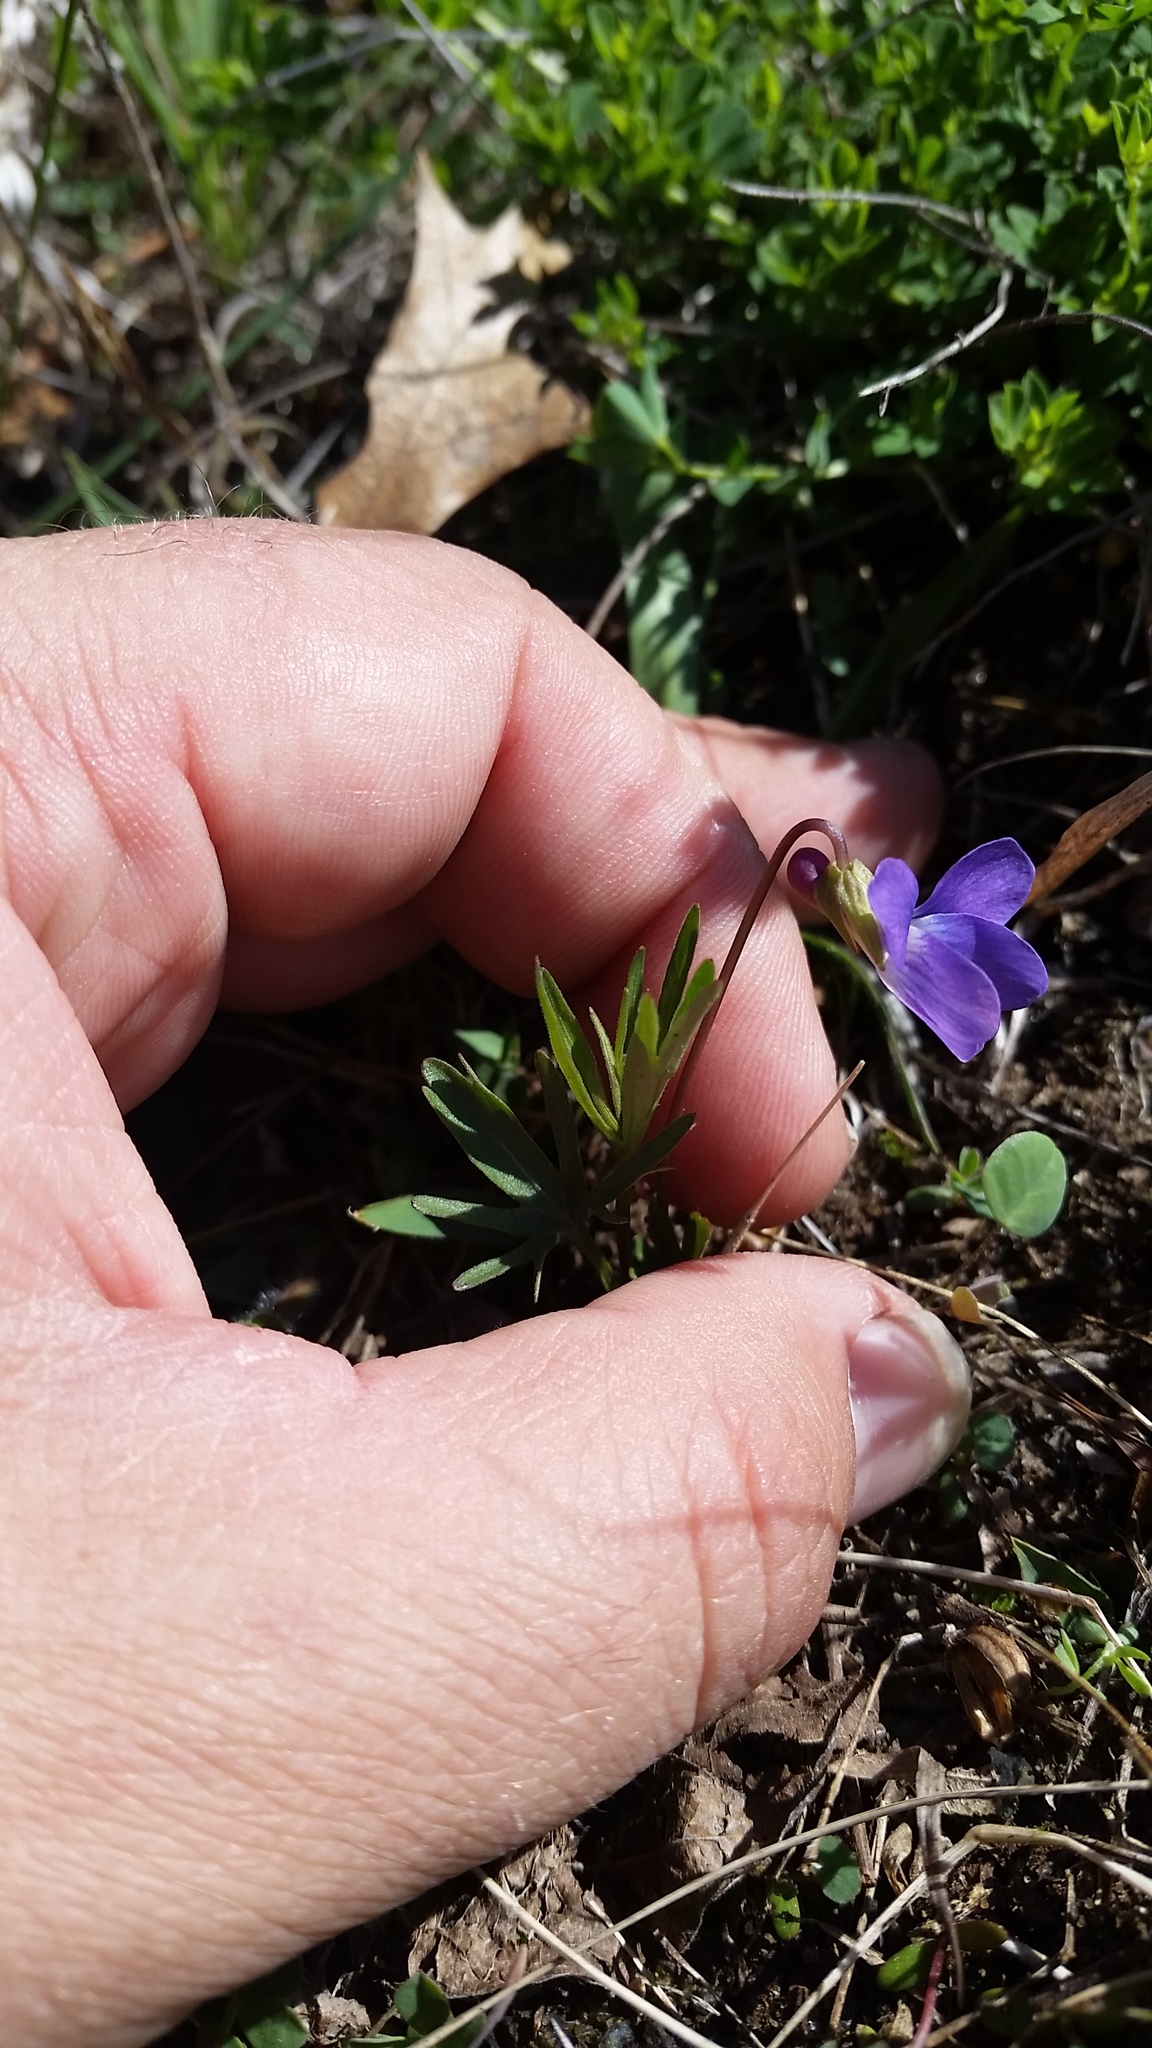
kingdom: Plantae
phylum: Tracheophyta
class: Magnoliopsida
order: Malpighiales
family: Violaceae
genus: Viola
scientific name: Viola pedatifida
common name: Prairie violet
